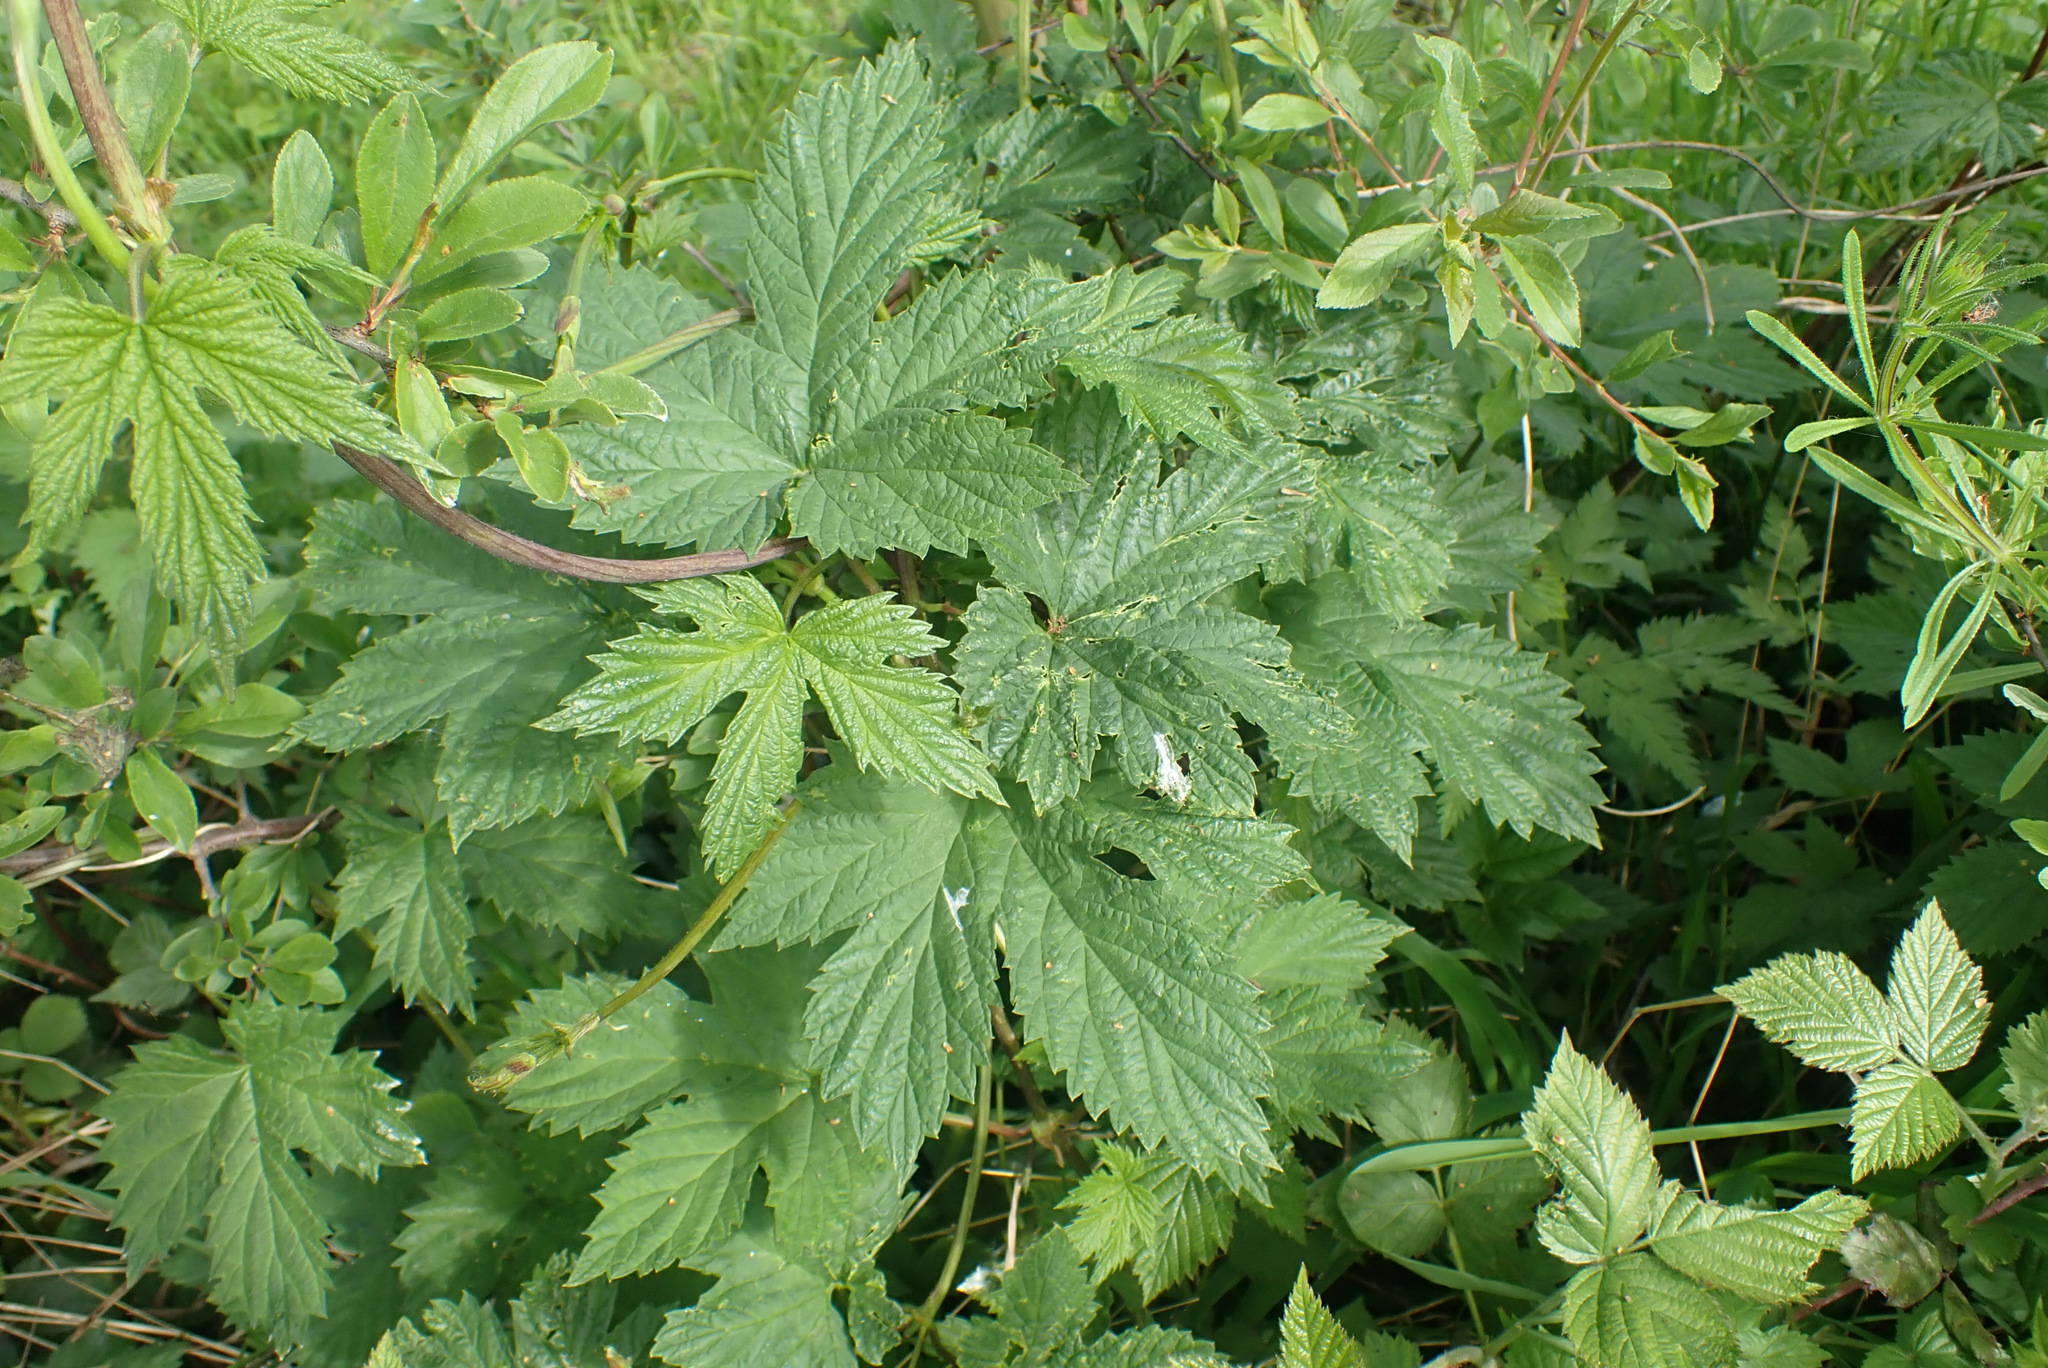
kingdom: Plantae
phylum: Tracheophyta
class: Magnoliopsida
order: Rosales
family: Cannabaceae
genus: Humulus
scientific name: Humulus lupulus
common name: Hop
